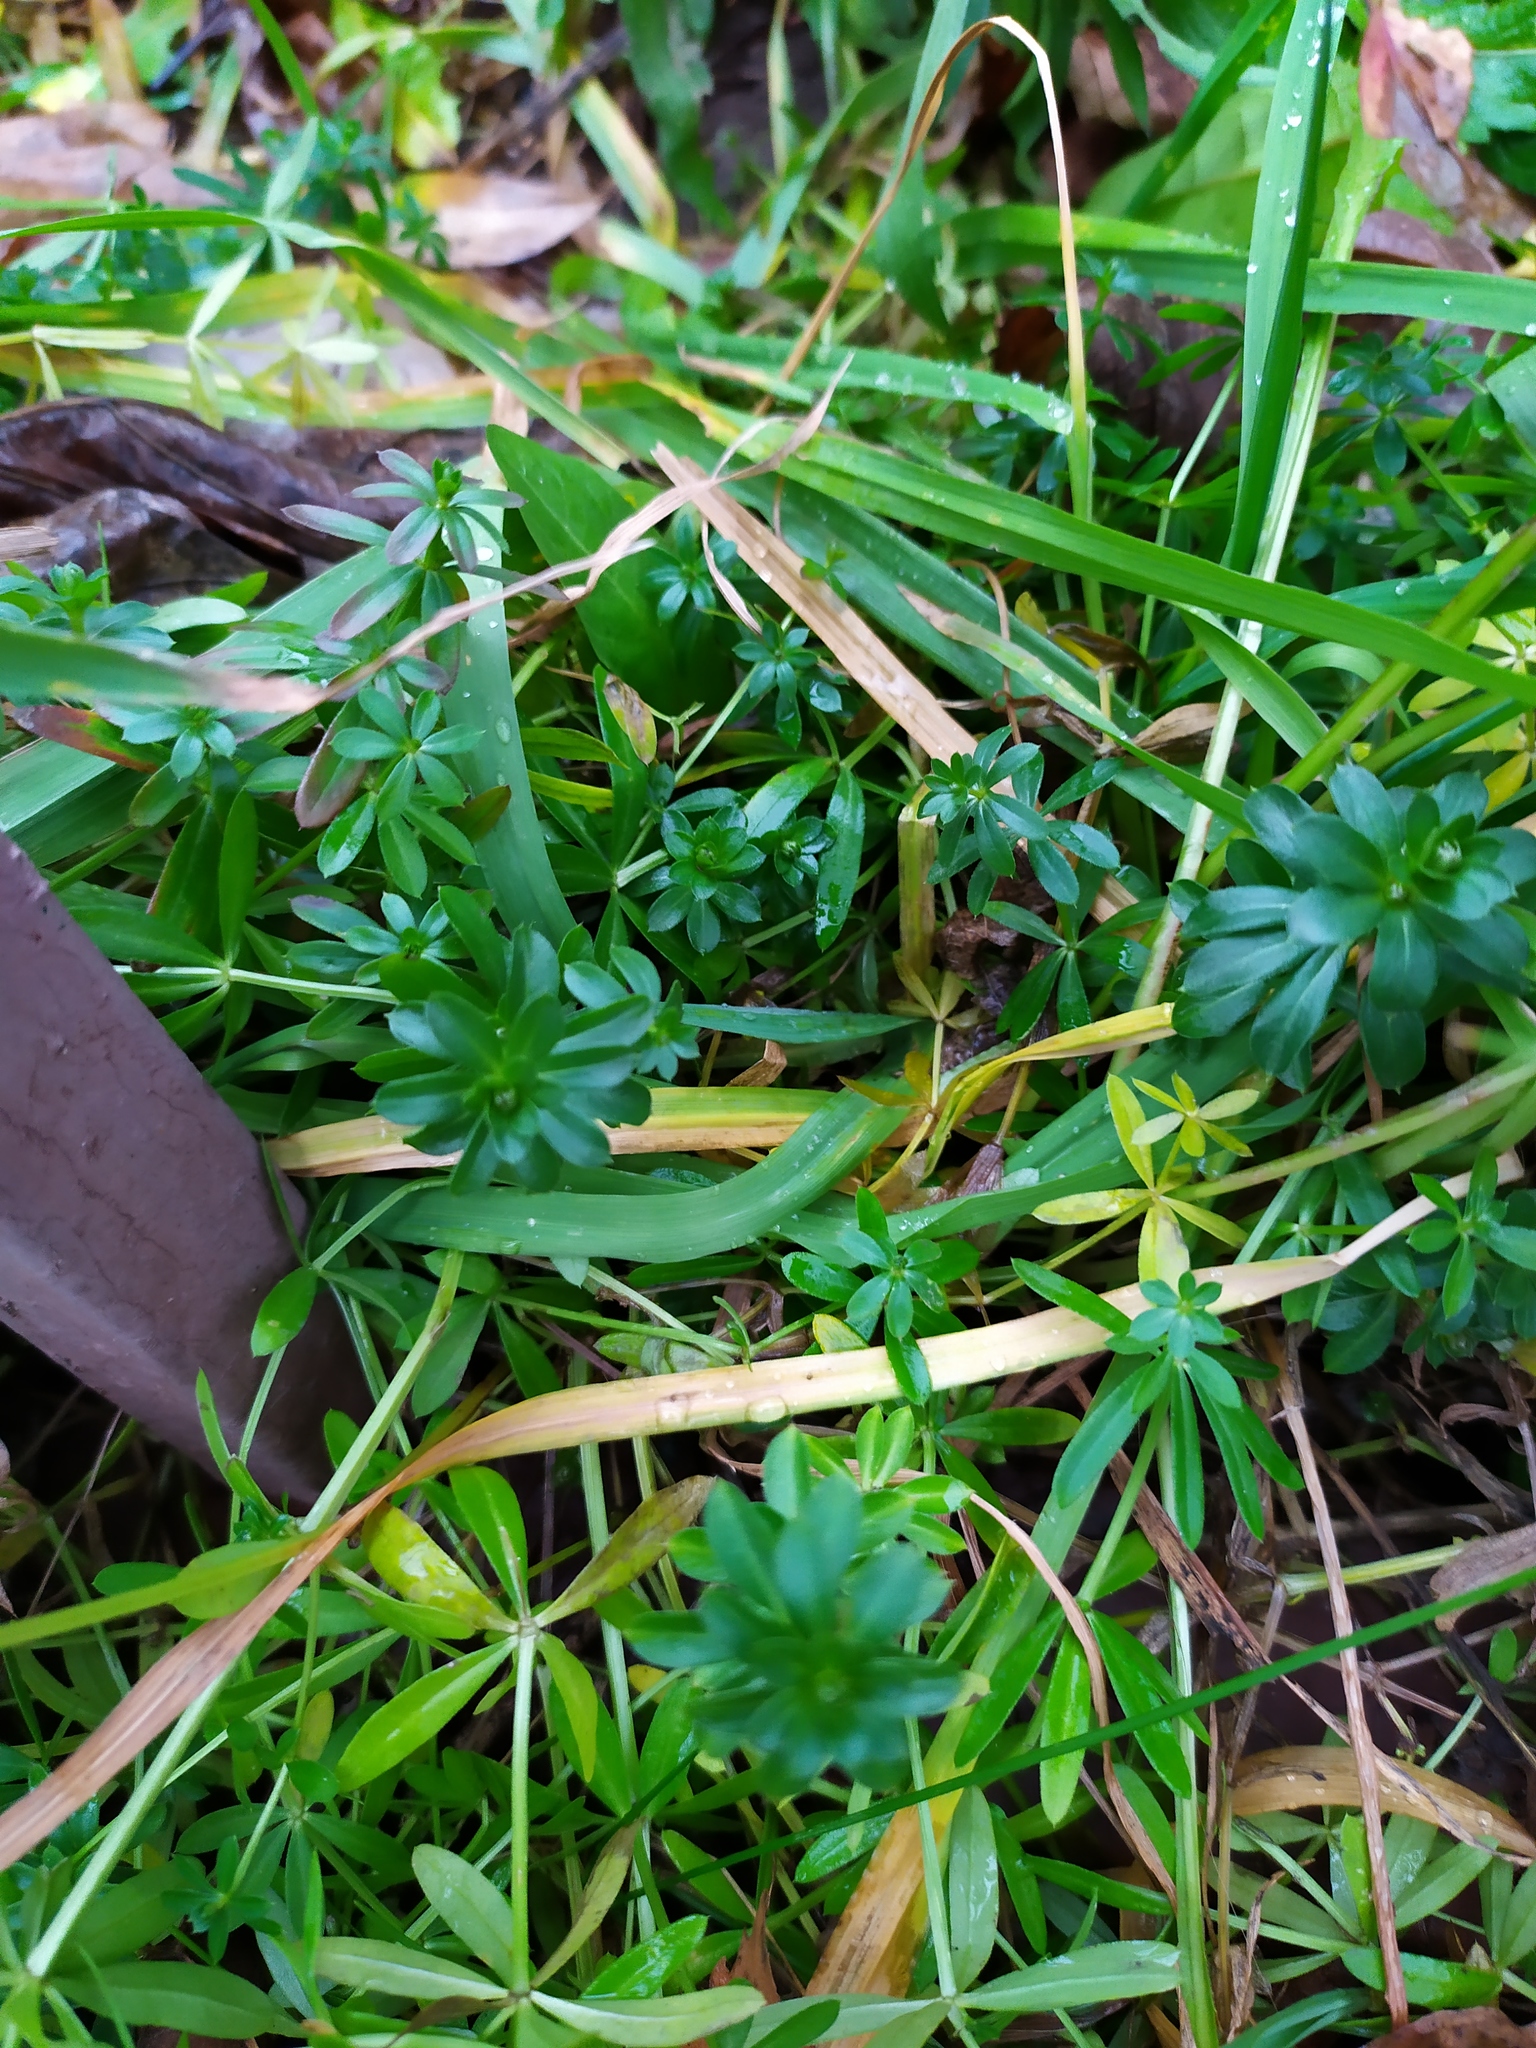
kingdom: Plantae
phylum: Tracheophyta
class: Magnoliopsida
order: Gentianales
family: Rubiaceae
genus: Galium
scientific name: Galium mollugo
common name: Hedge bedstraw
